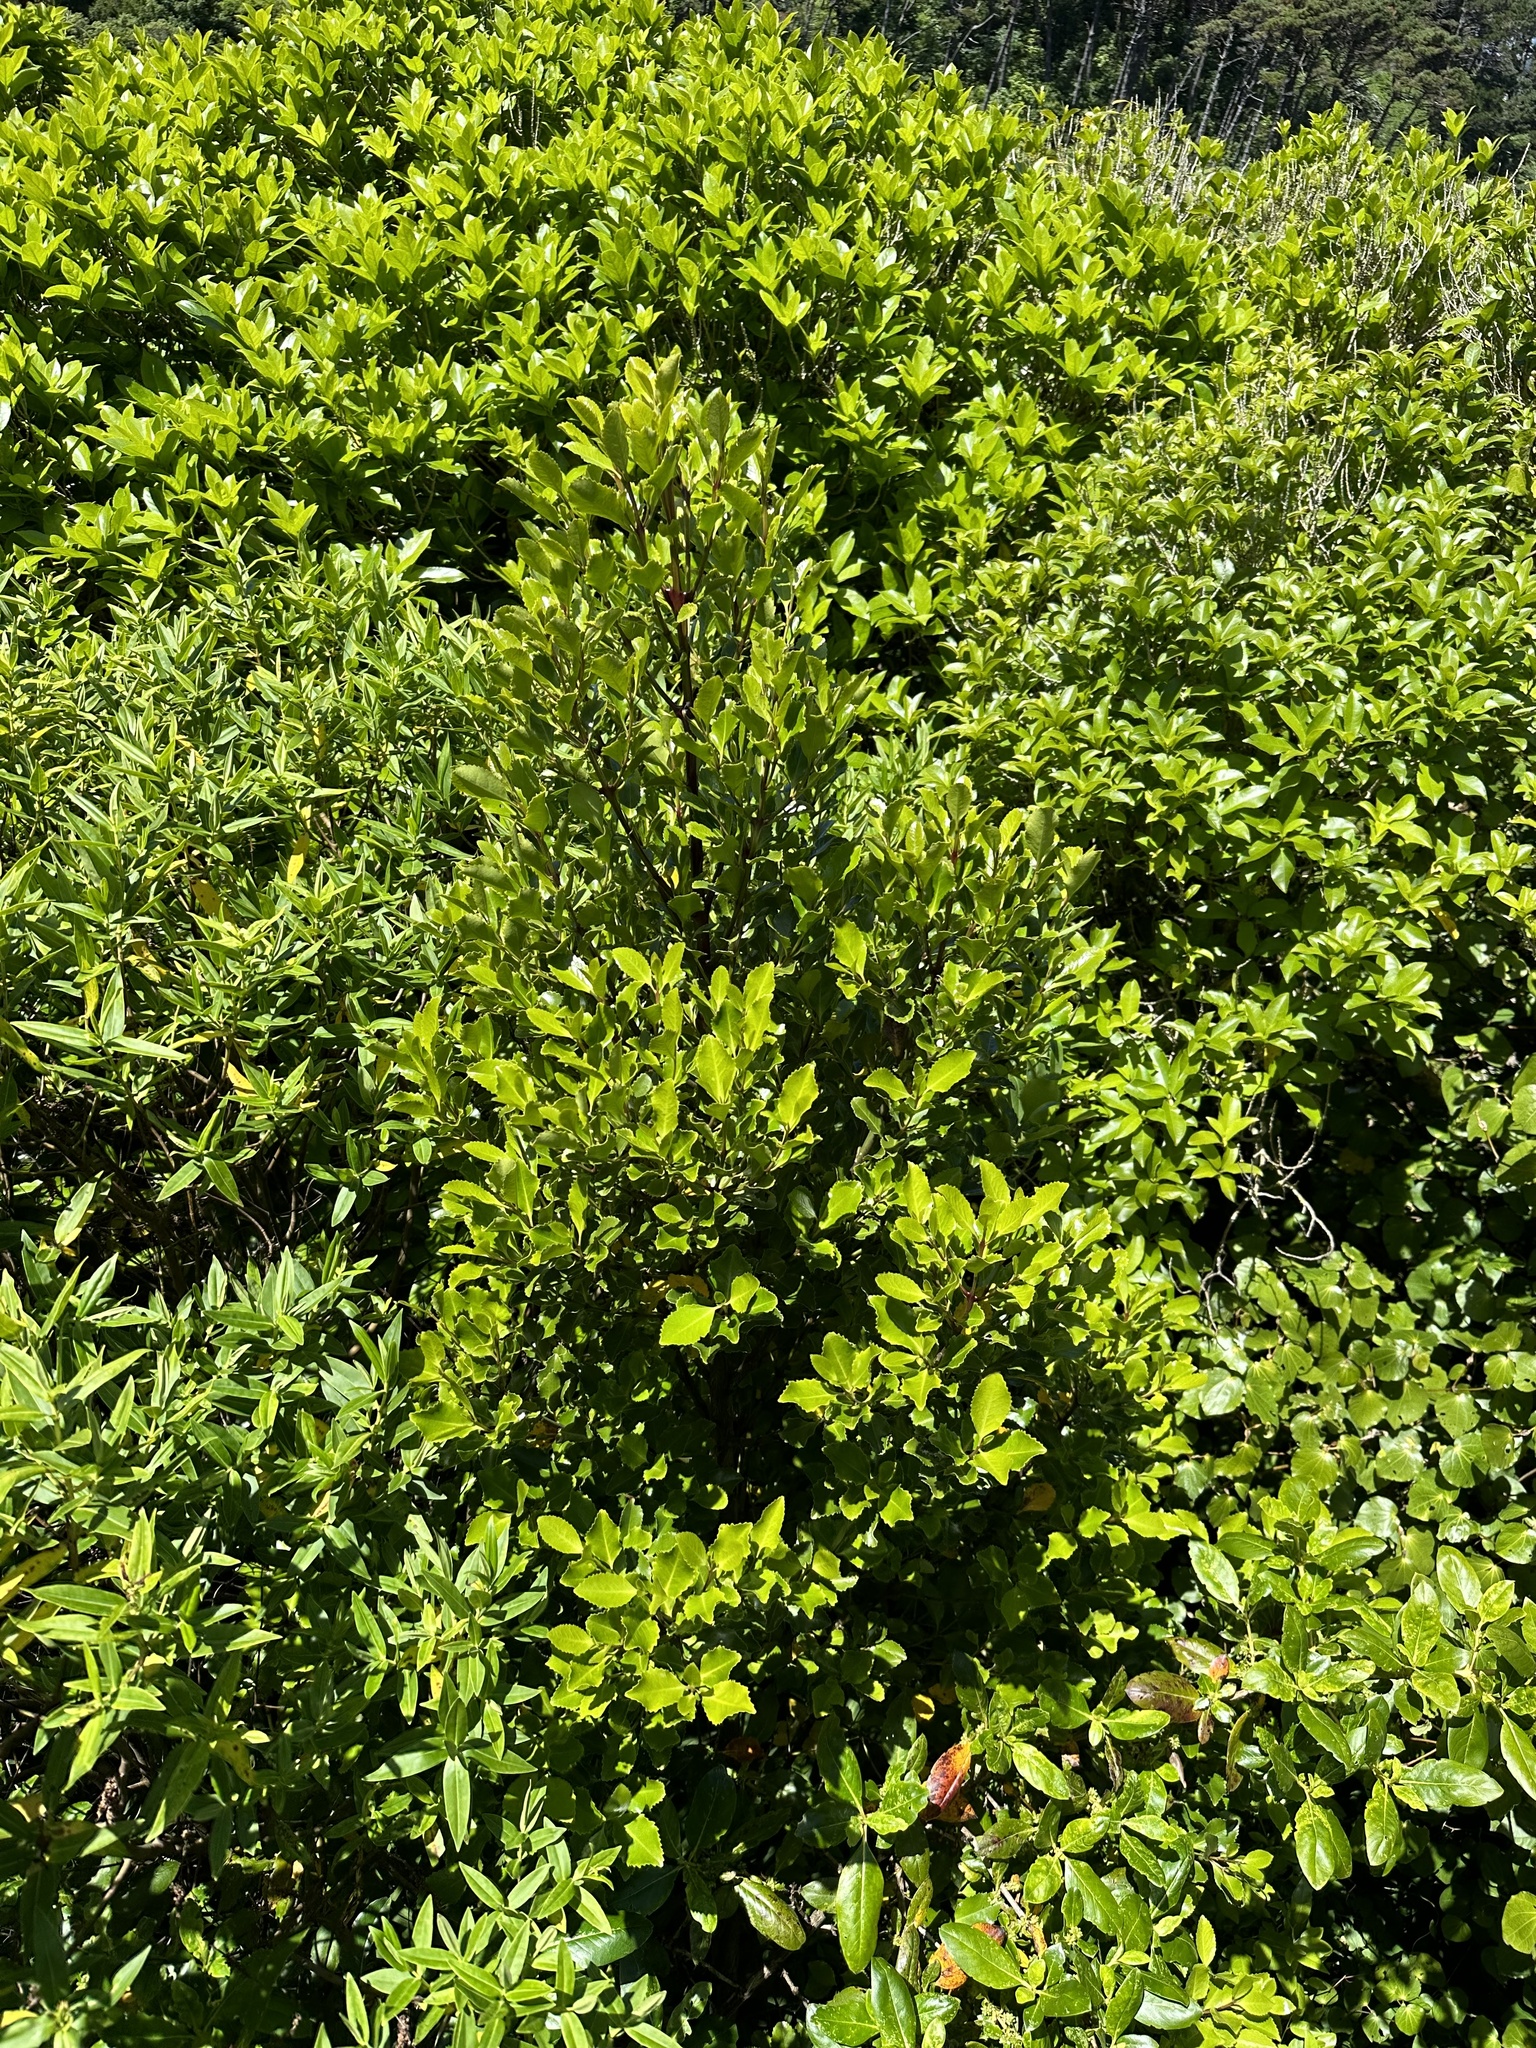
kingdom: Plantae
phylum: Tracheophyta
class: Magnoliopsida
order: Laurales
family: Atherospermataceae
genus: Laurelia
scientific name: Laurelia novae-zelandiae
